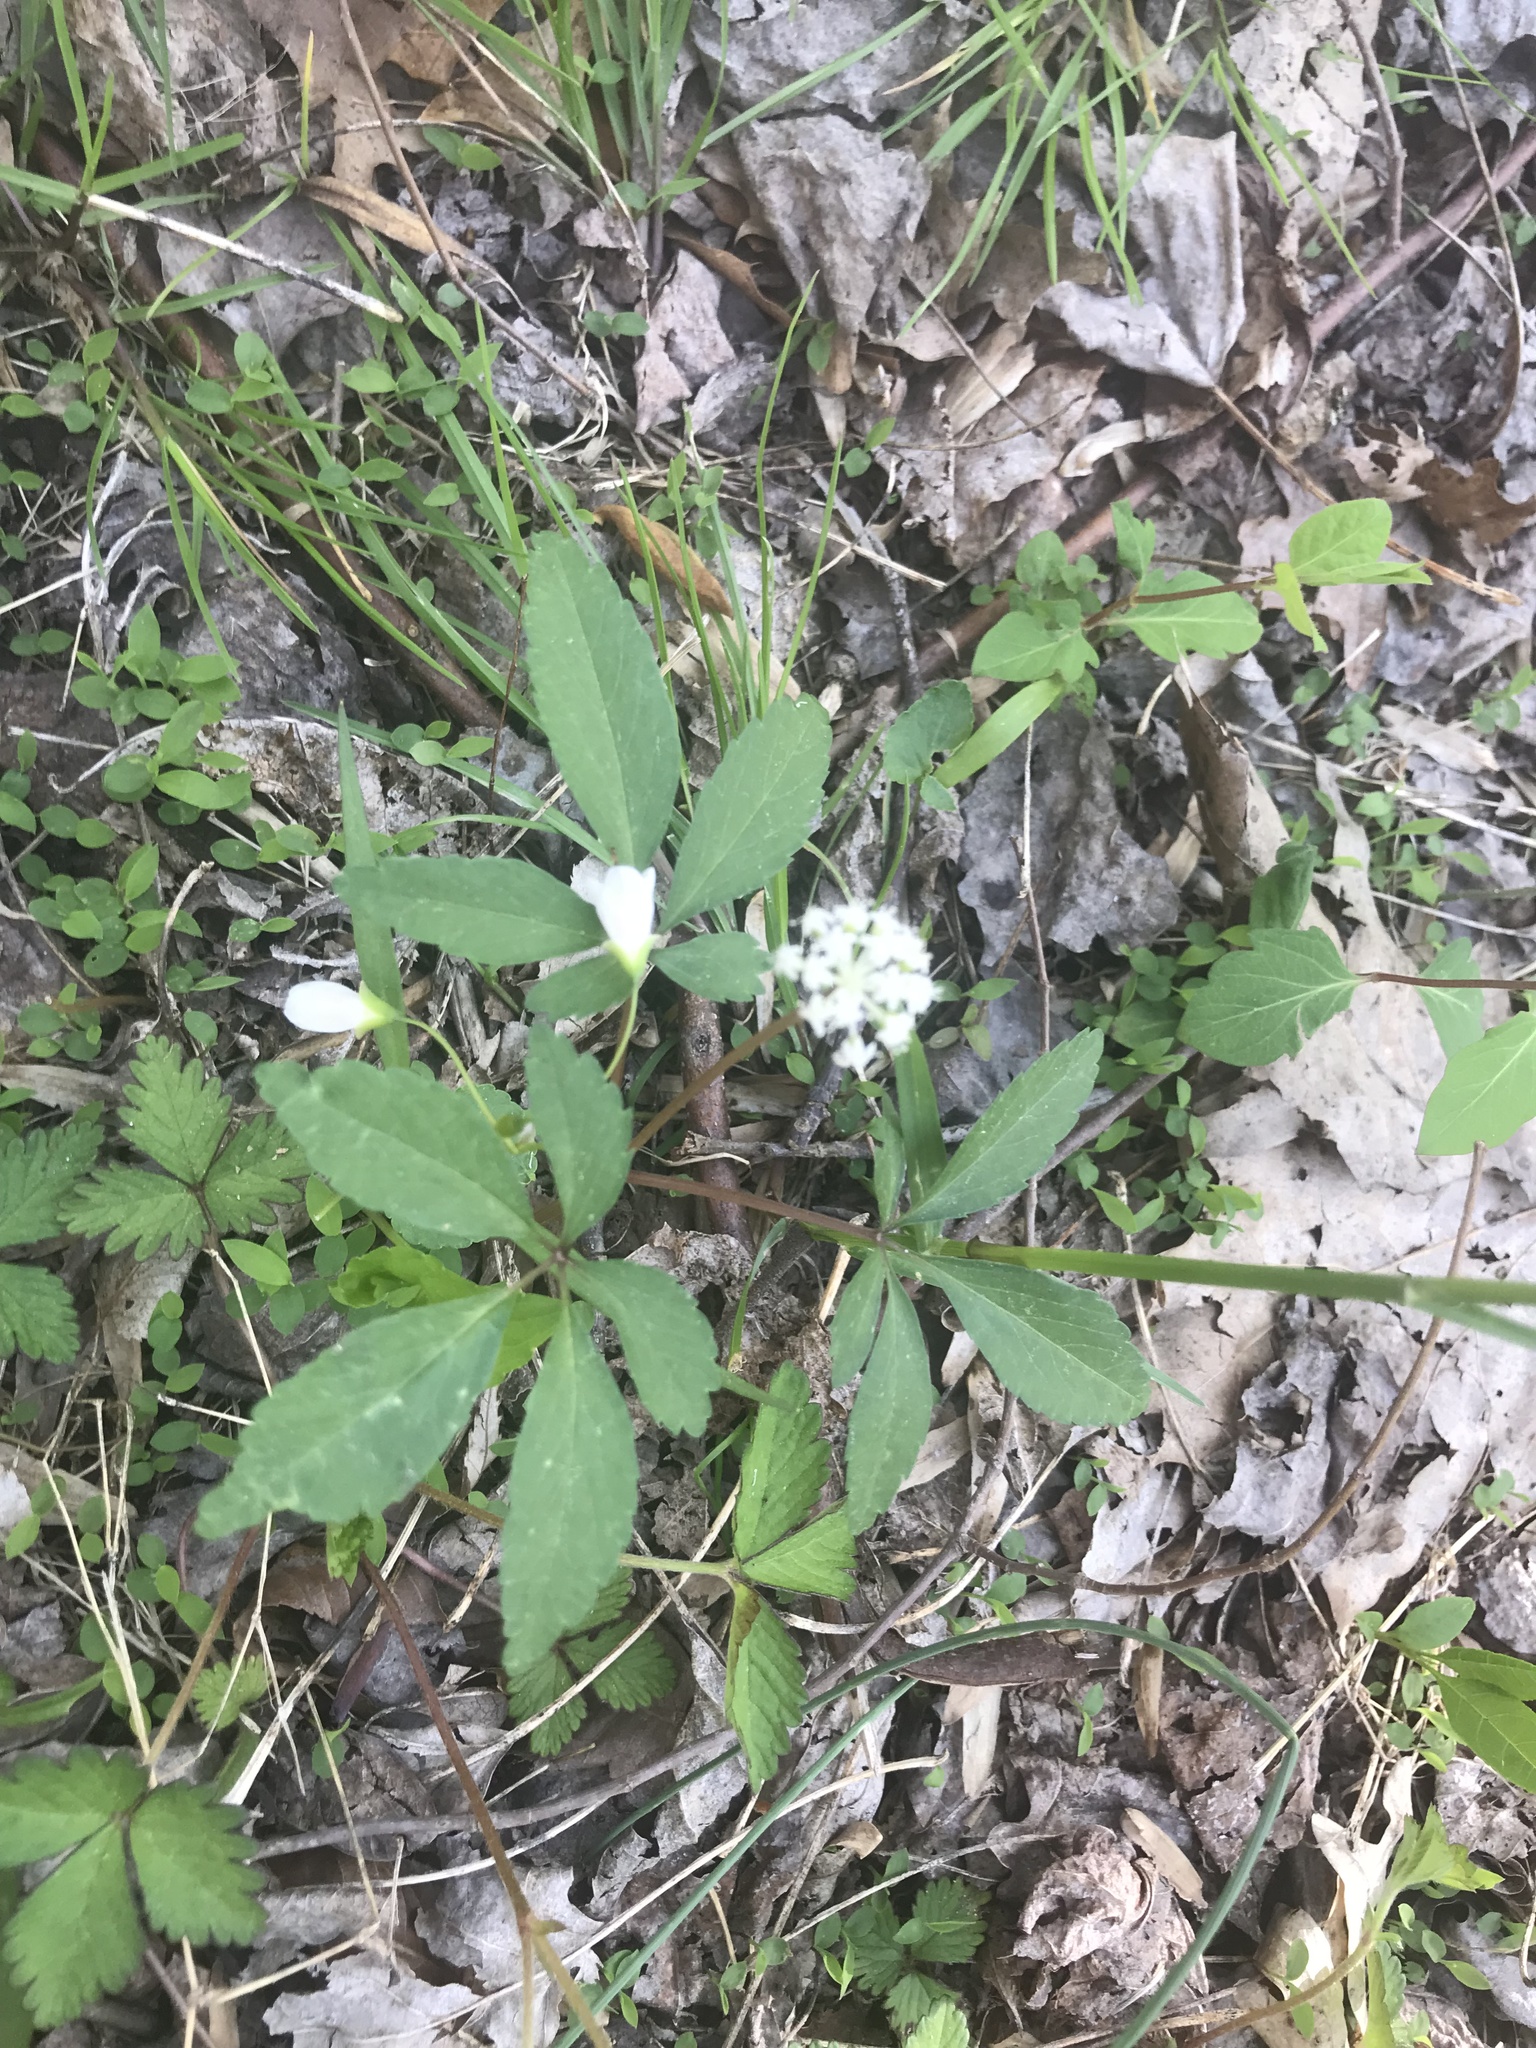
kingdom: Plantae
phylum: Tracheophyta
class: Magnoliopsida
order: Apiales
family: Araliaceae
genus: Panax
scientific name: Panax trifolius
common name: Dwarf ginseng
